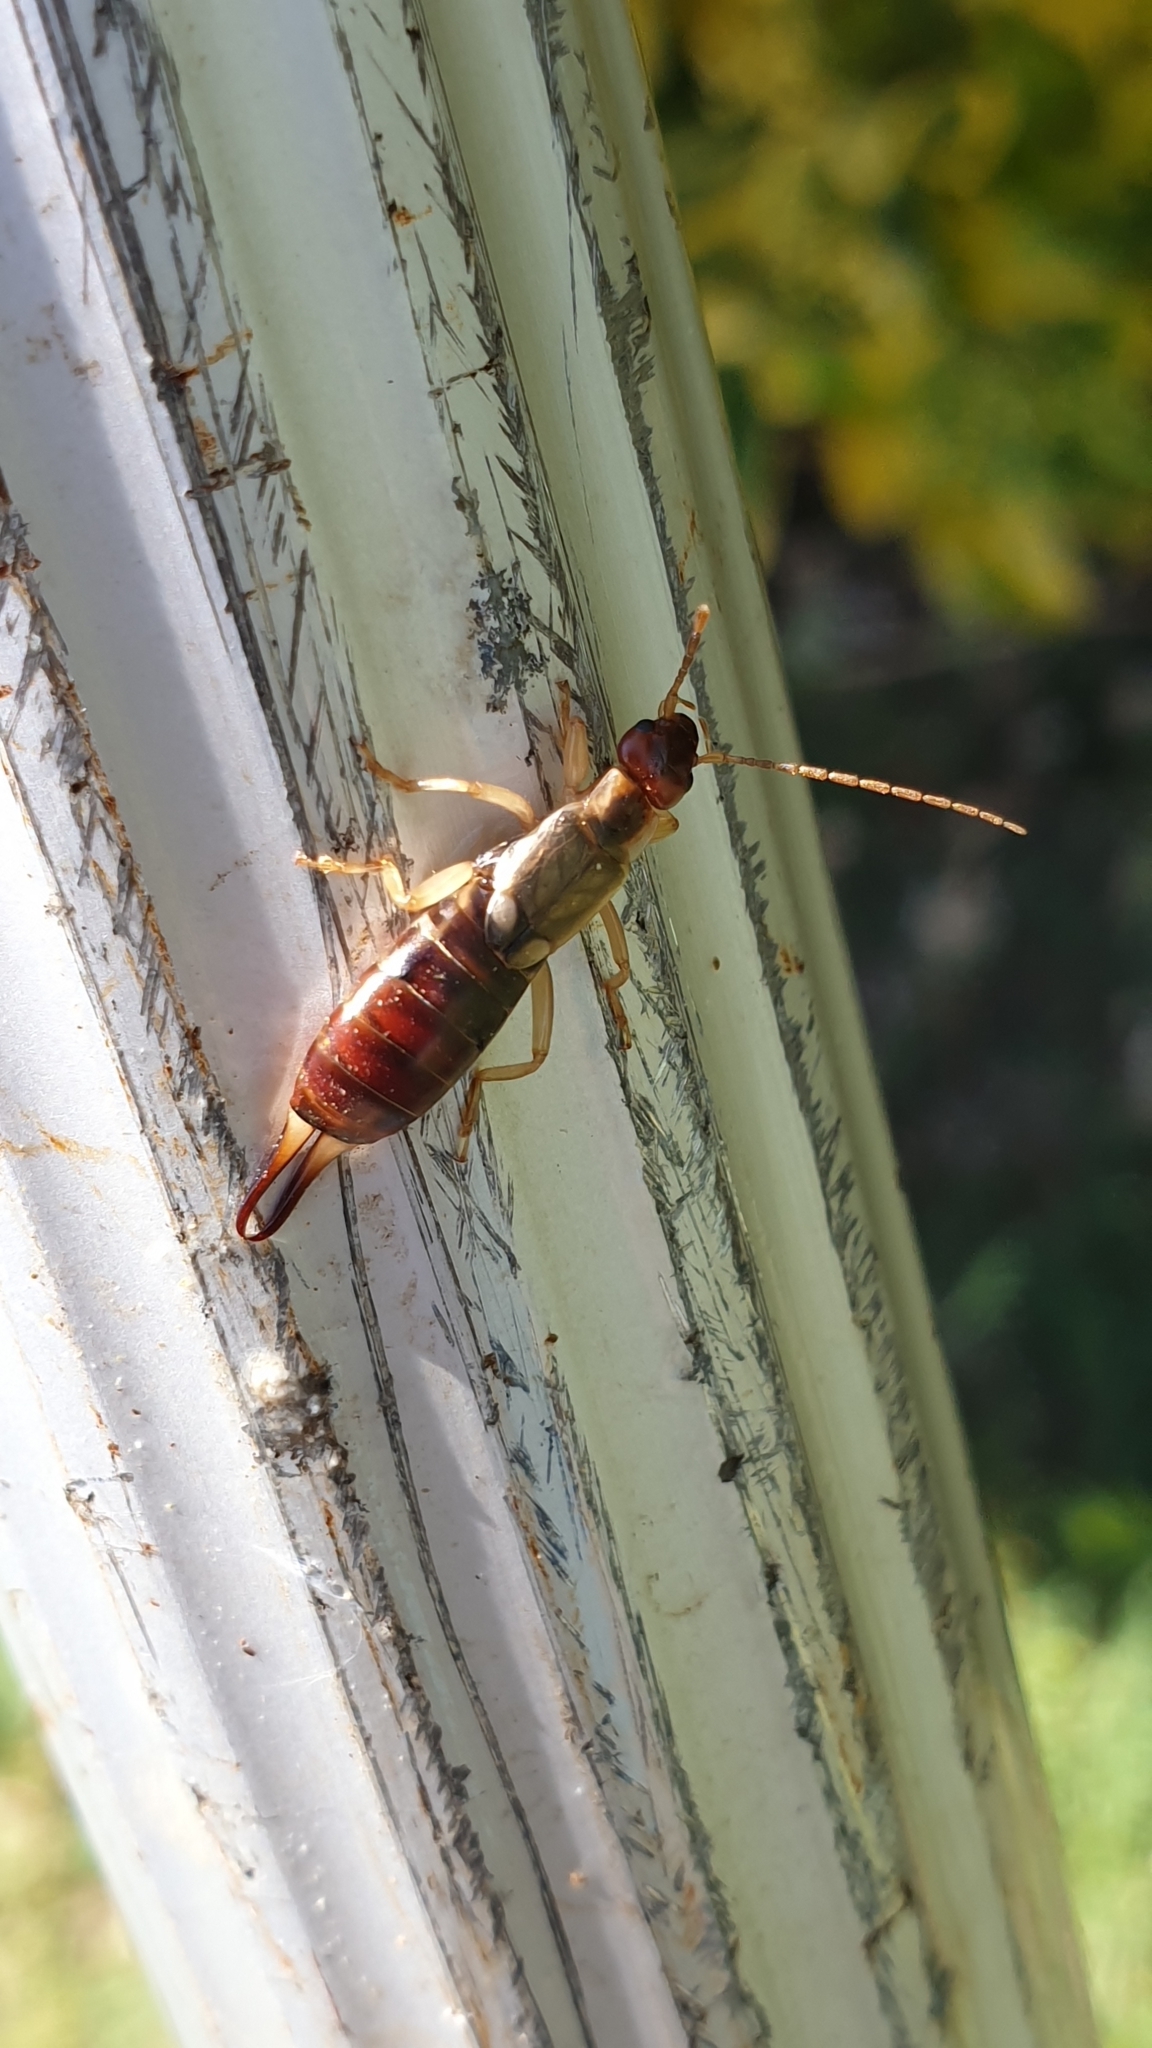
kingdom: Animalia
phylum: Arthropoda
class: Insecta
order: Dermaptera
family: Forficulidae
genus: Forficula
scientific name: Forficula
